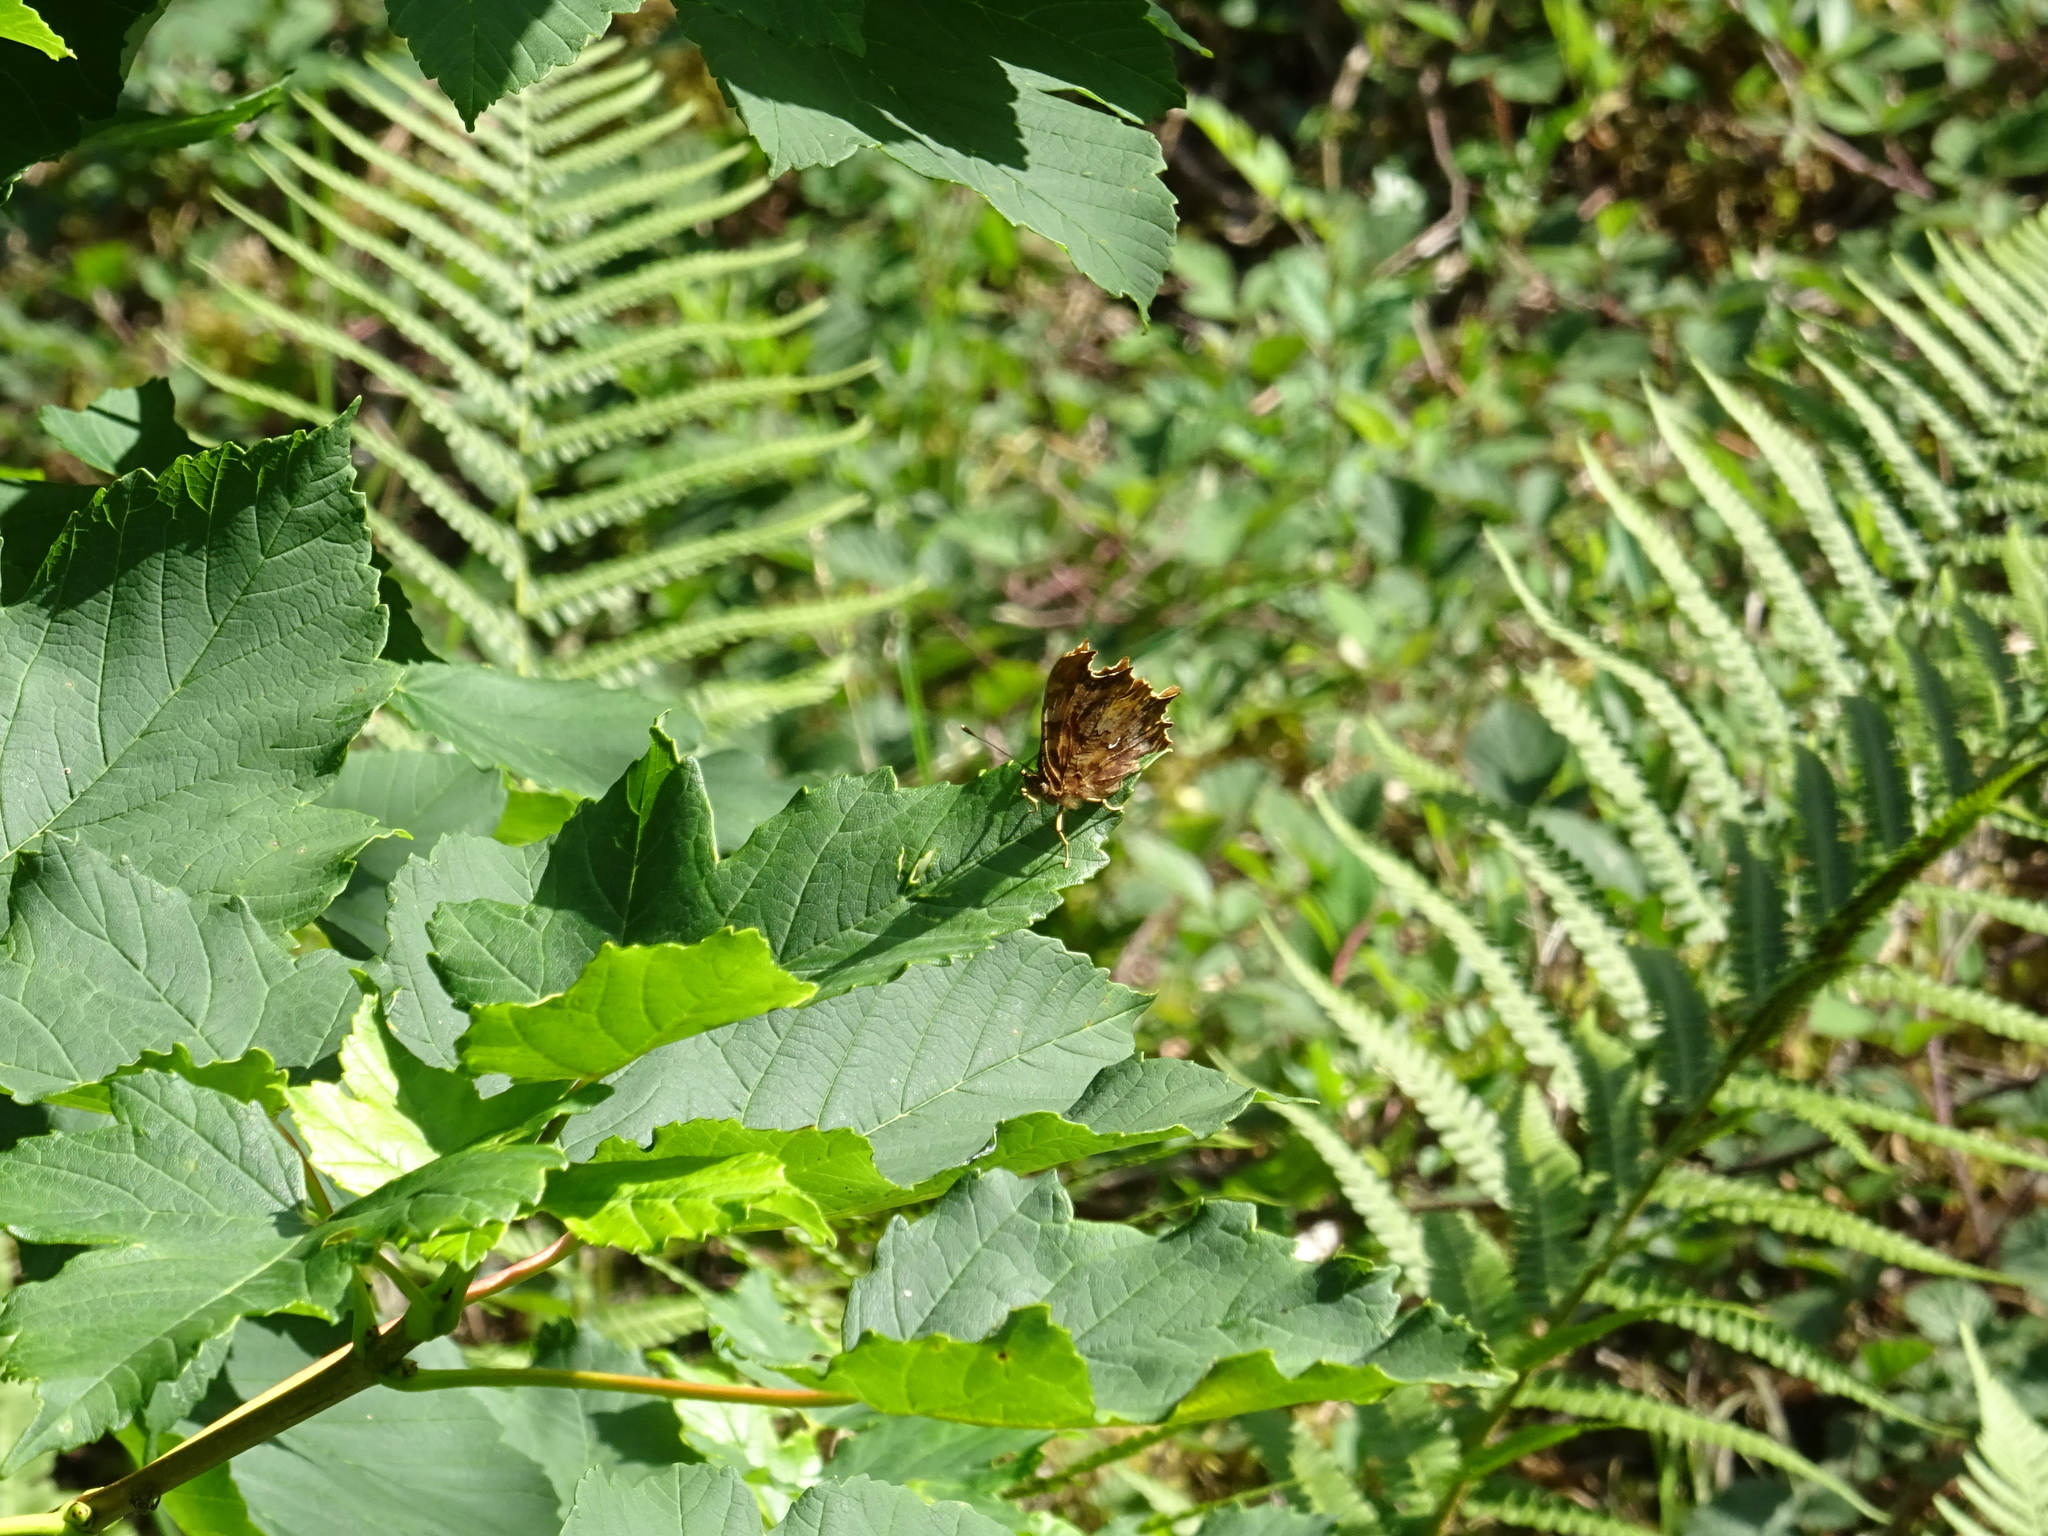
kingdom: Animalia
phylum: Arthropoda
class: Insecta
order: Lepidoptera
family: Nymphalidae
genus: Polygonia
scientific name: Polygonia c-album
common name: Comma
